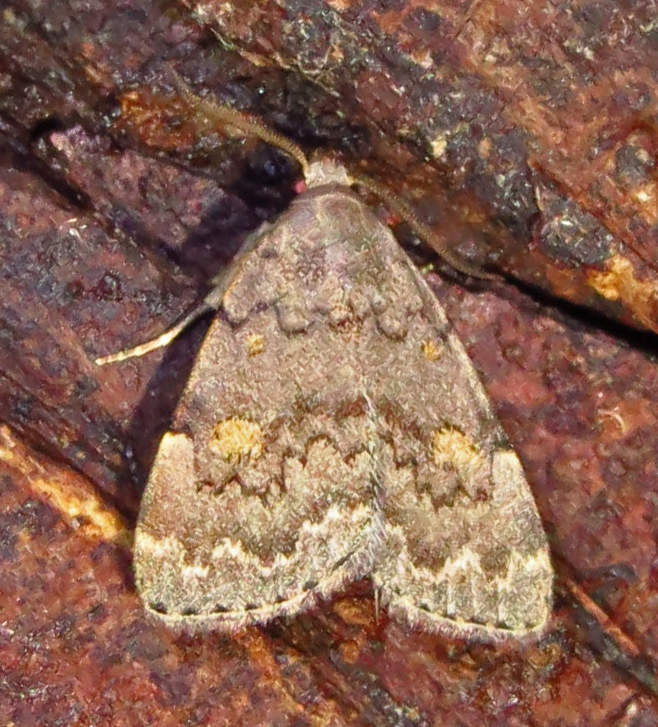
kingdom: Animalia
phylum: Arthropoda
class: Insecta
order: Lepidoptera
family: Erebidae
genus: Idia
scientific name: Idia aemula
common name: Common idia moth
